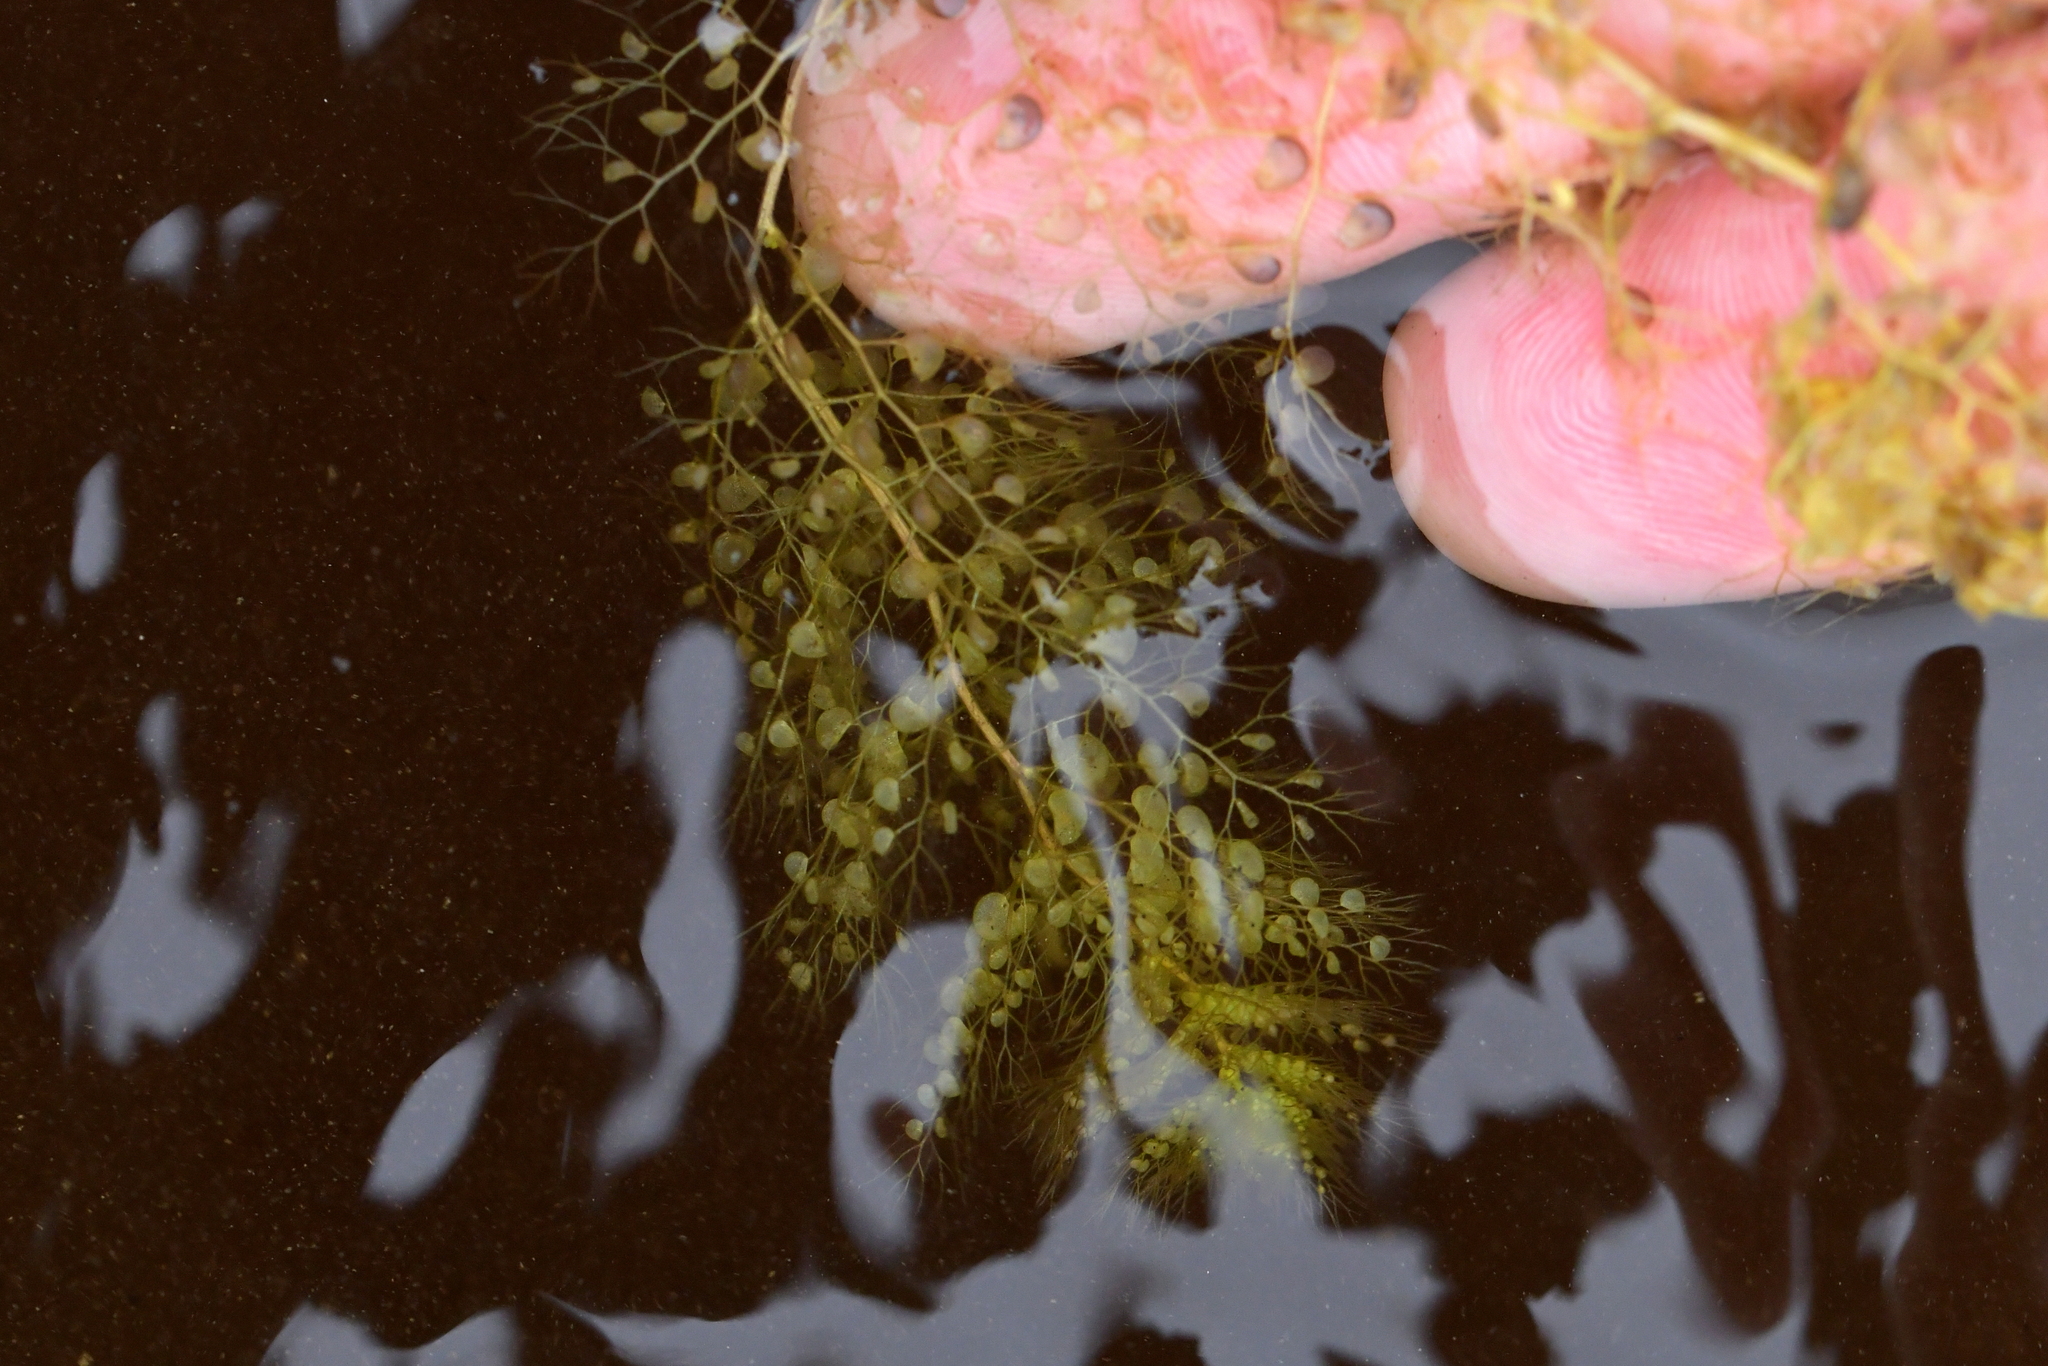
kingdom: Plantae
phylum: Tracheophyta
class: Magnoliopsida
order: Lamiales
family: Lentibulariaceae
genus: Utricularia
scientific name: Utricularia australis
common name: Bladderwort
